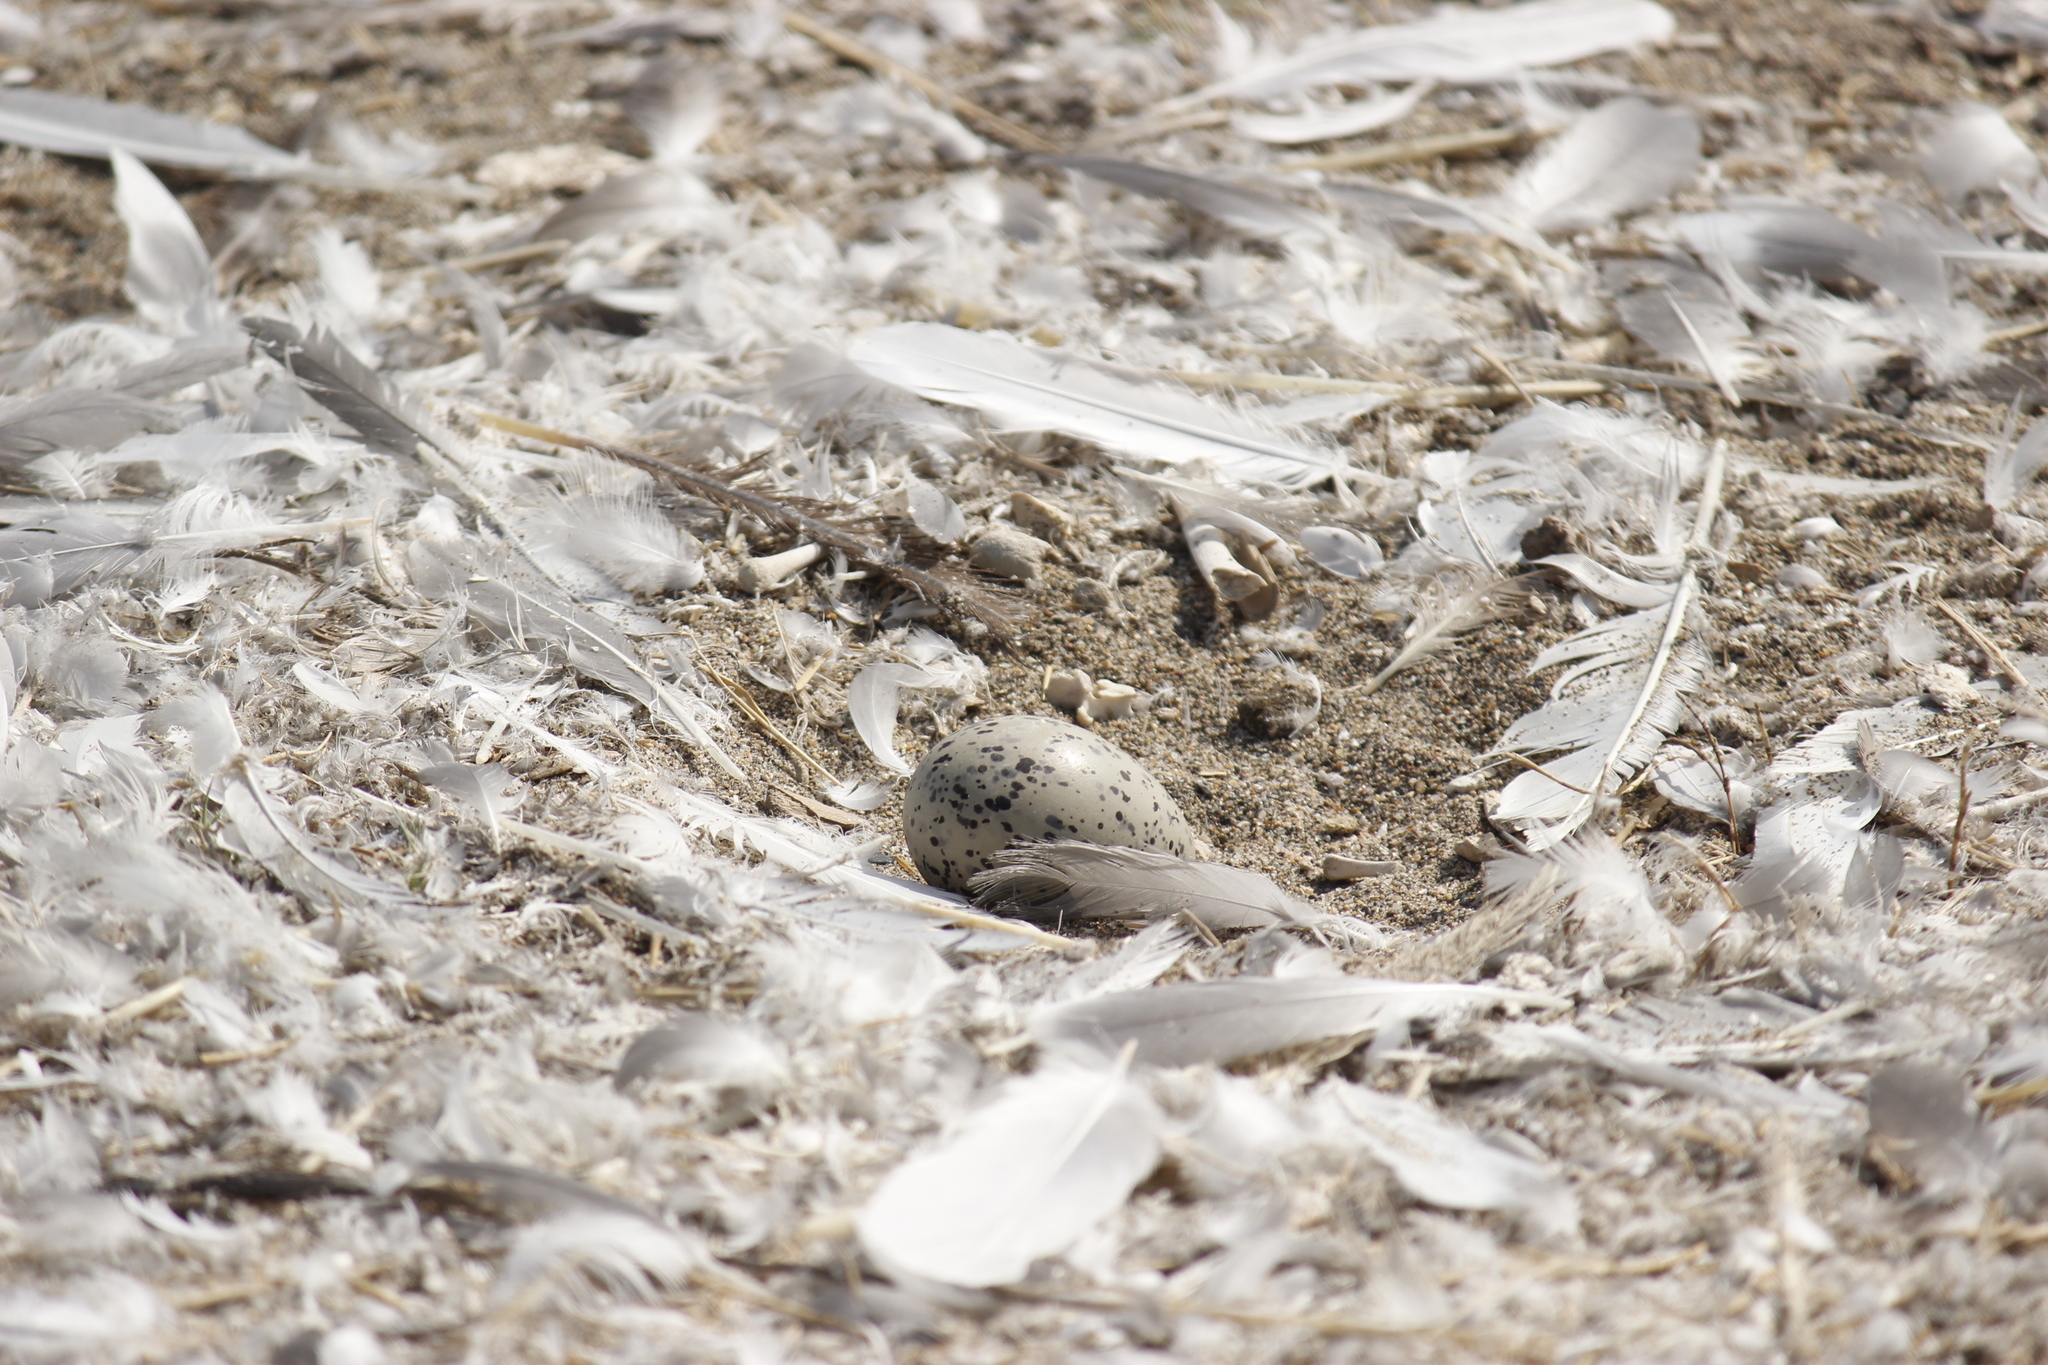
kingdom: Animalia
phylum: Chordata
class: Aves
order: Charadriiformes
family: Haematopodidae
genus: Haematopus
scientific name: Haematopus palliatus
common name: American oystercatcher
